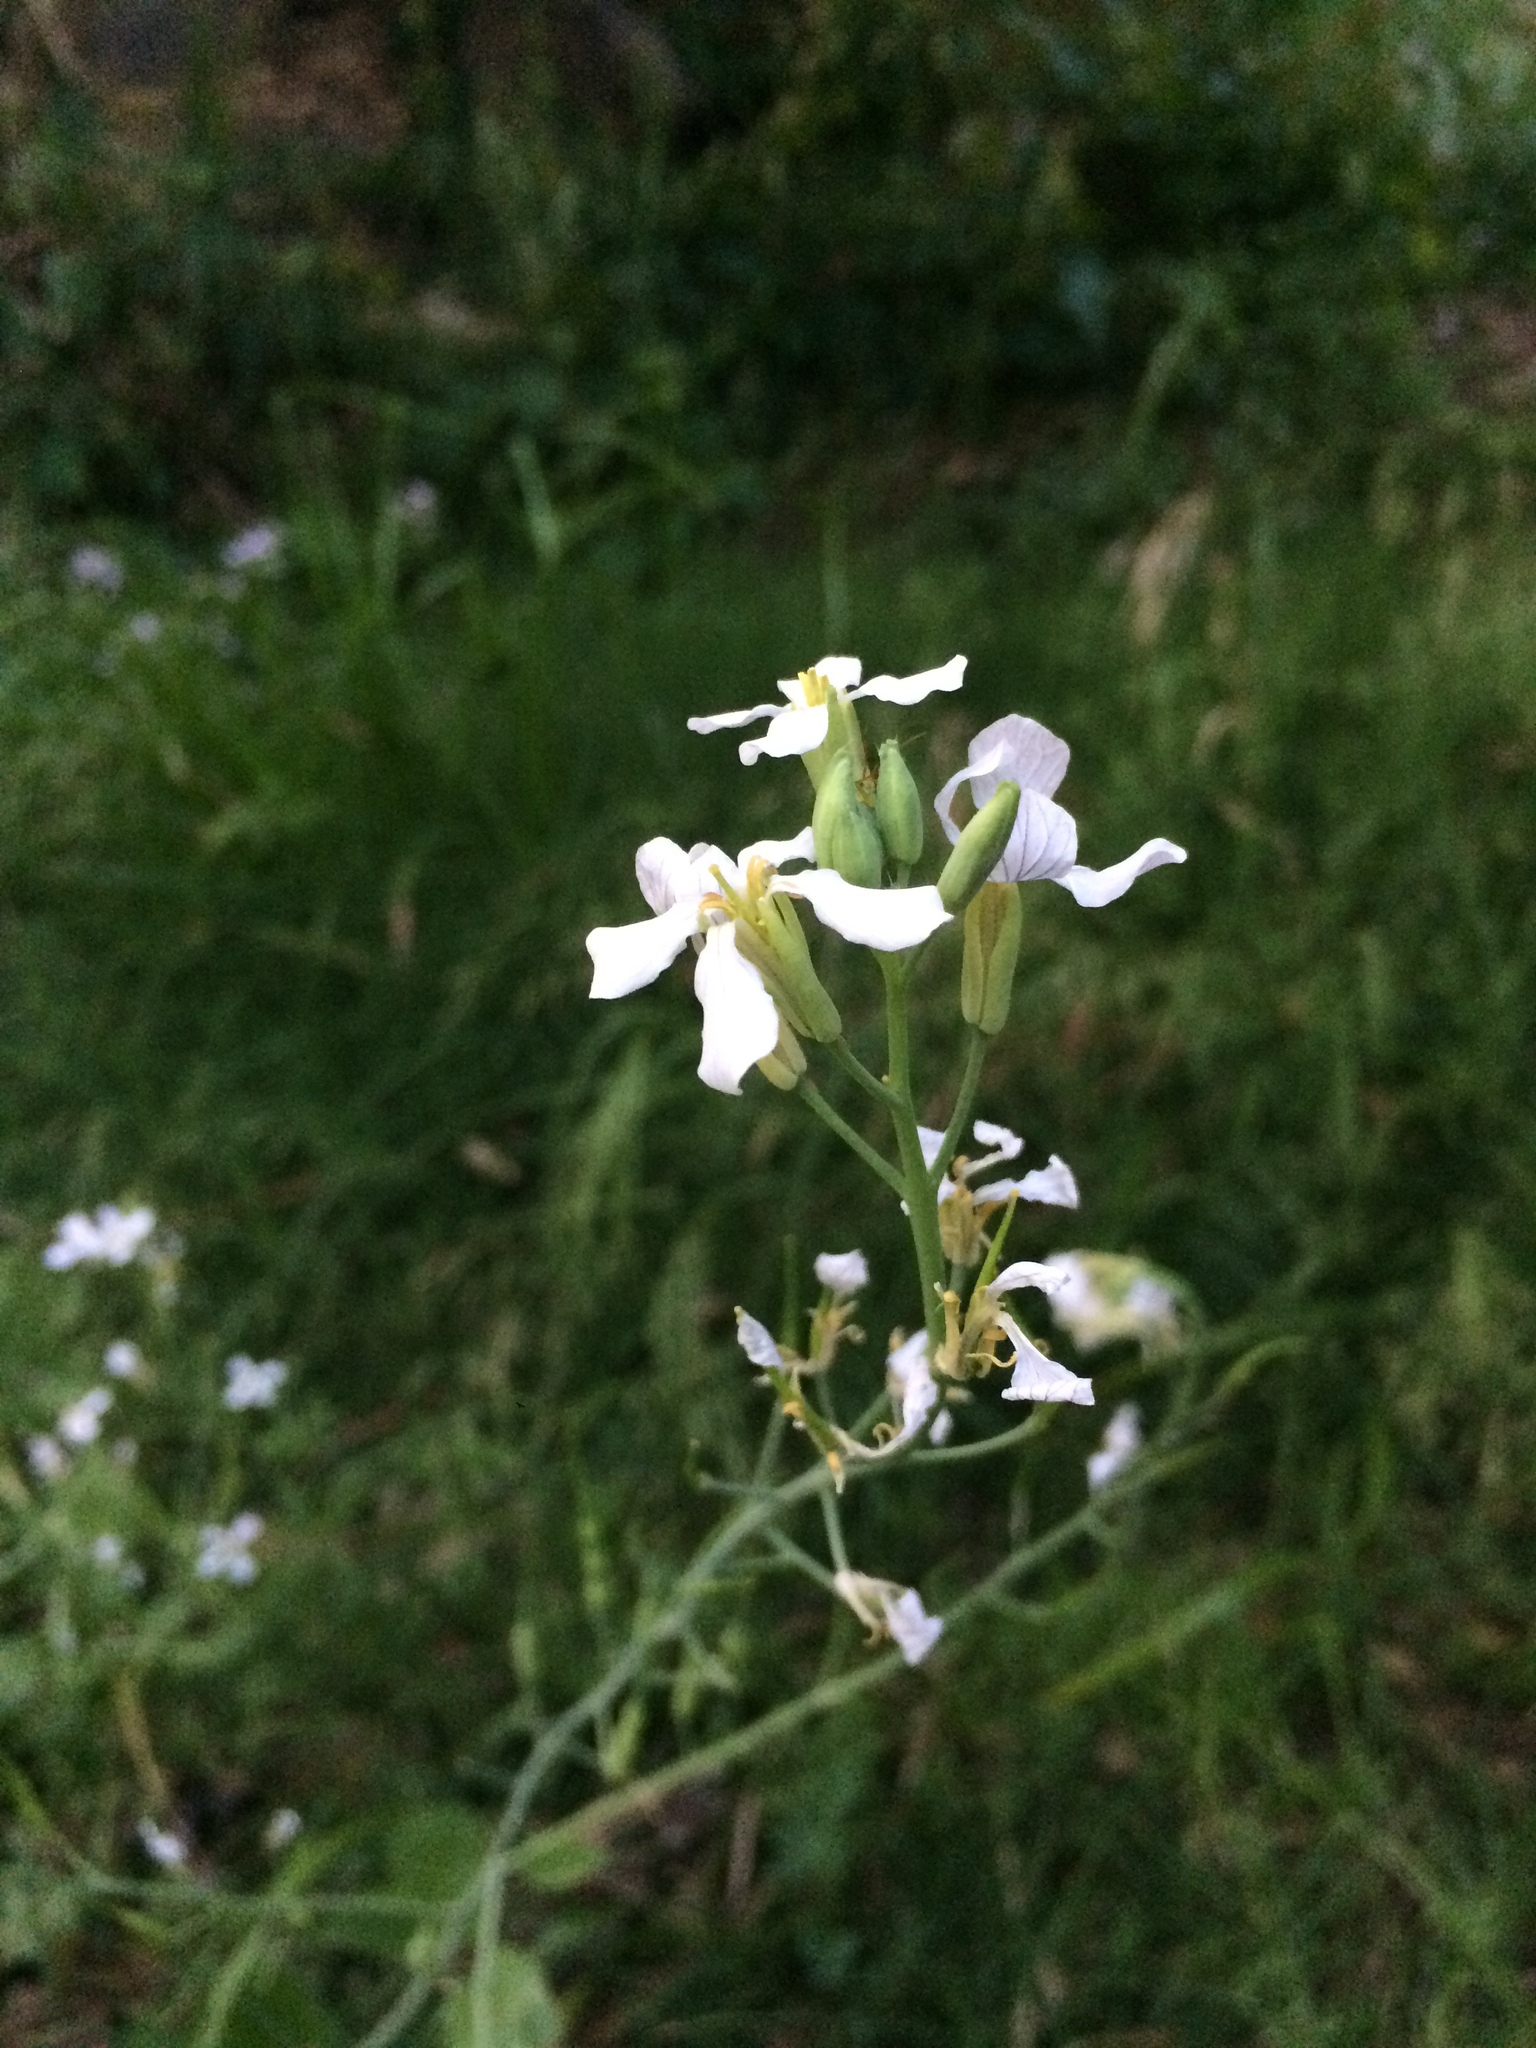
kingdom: Plantae
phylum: Tracheophyta
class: Magnoliopsida
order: Brassicales
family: Brassicaceae
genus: Raphanus
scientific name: Raphanus raphanistrum
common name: Wild radish
